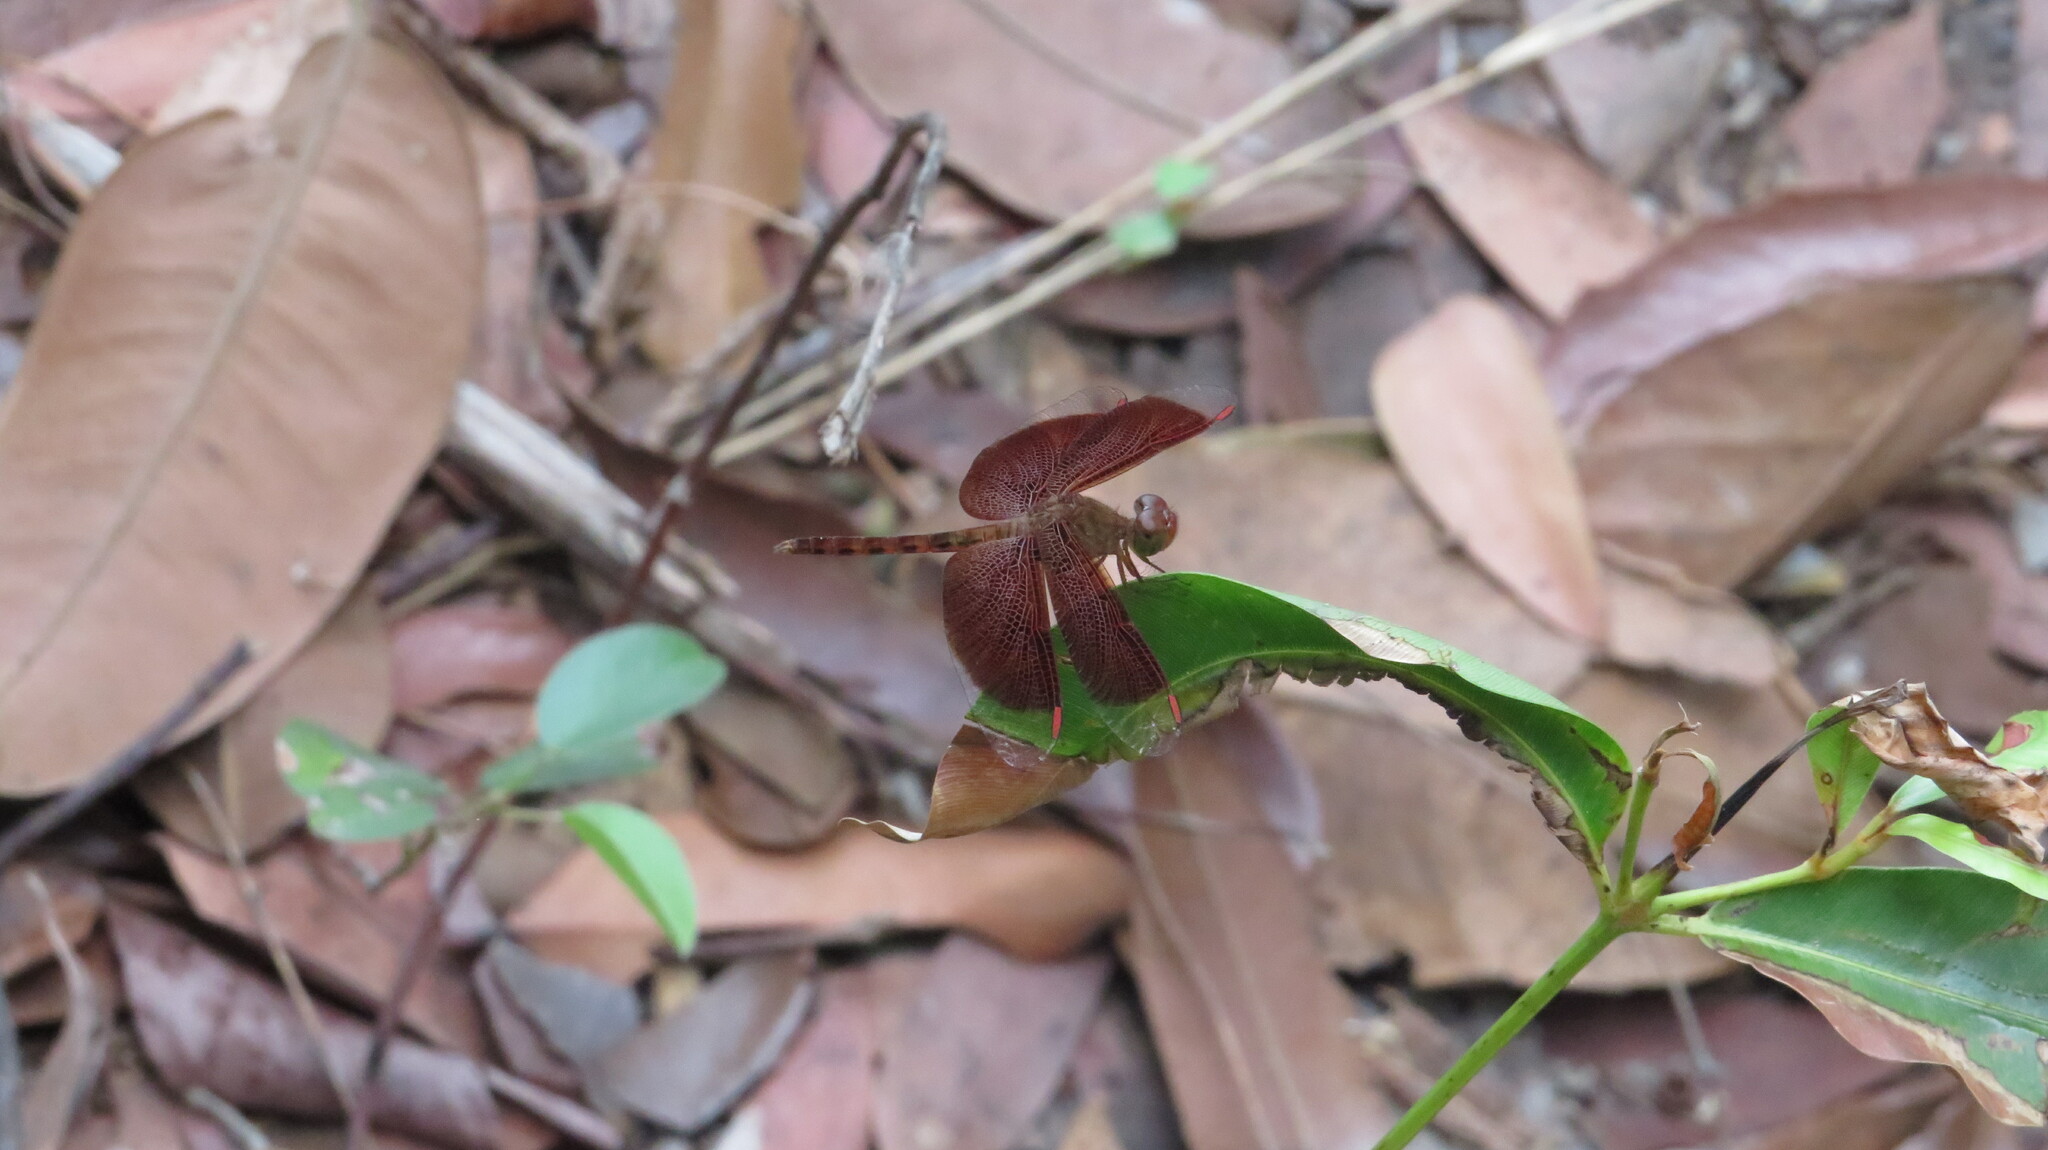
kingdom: Animalia
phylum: Arthropoda
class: Insecta
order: Odonata
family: Libellulidae
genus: Neurothemis
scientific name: Neurothemis fluctuans
